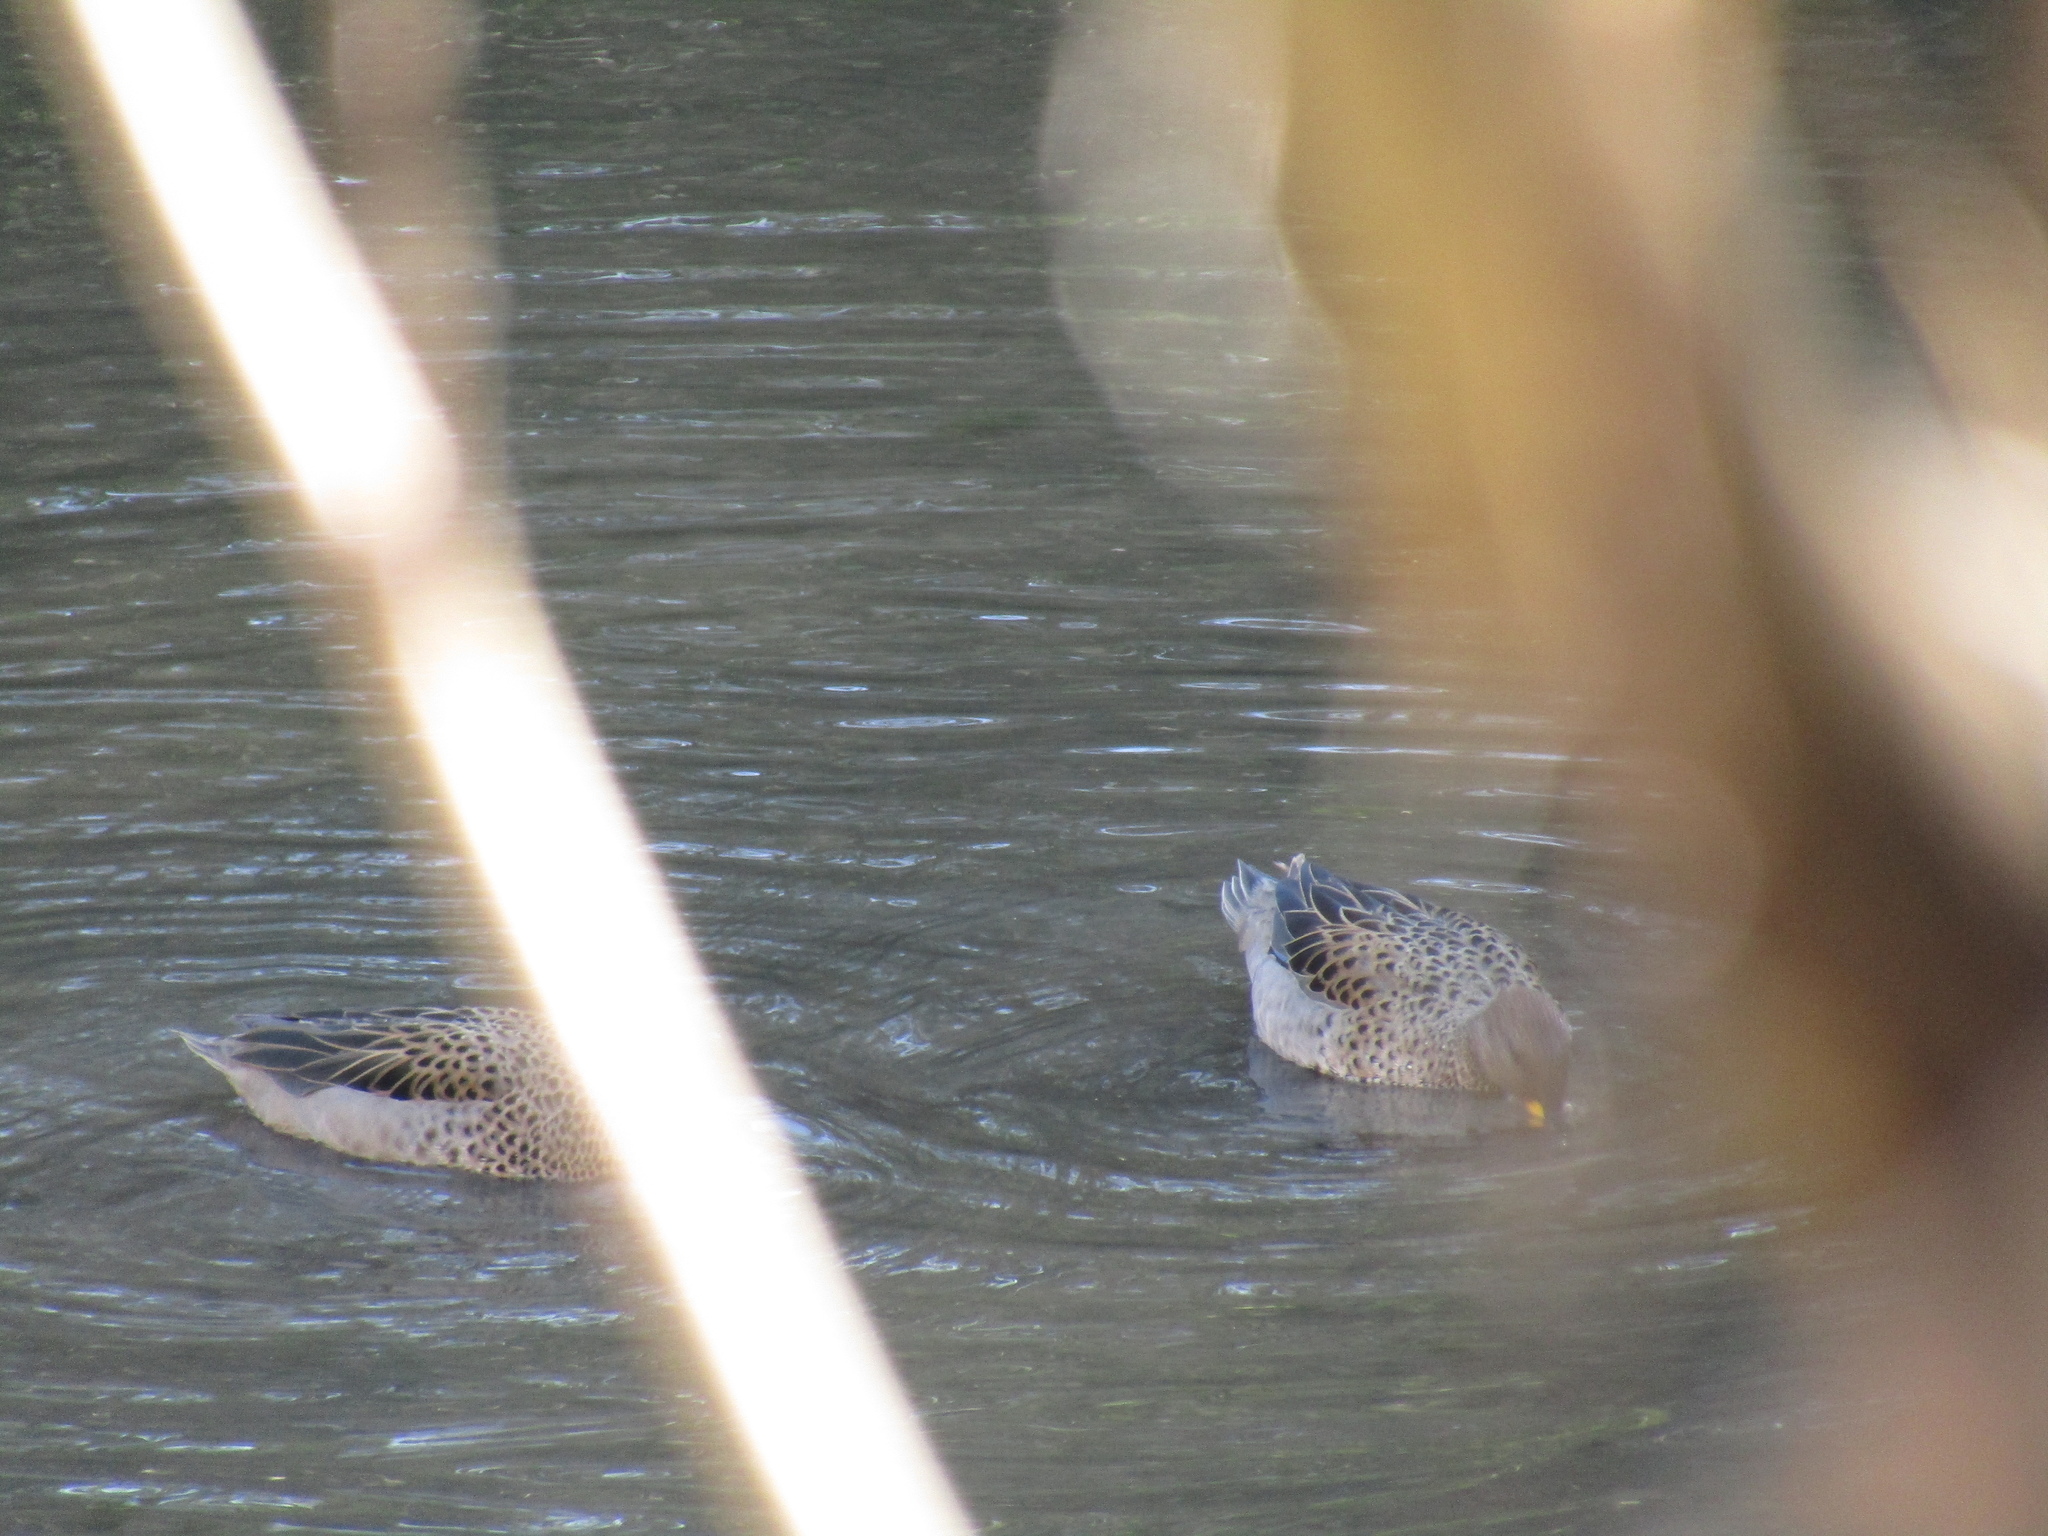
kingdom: Animalia
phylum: Chordata
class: Aves
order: Anseriformes
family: Anatidae
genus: Anas
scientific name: Anas flavirostris
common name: Yellow-billed teal
